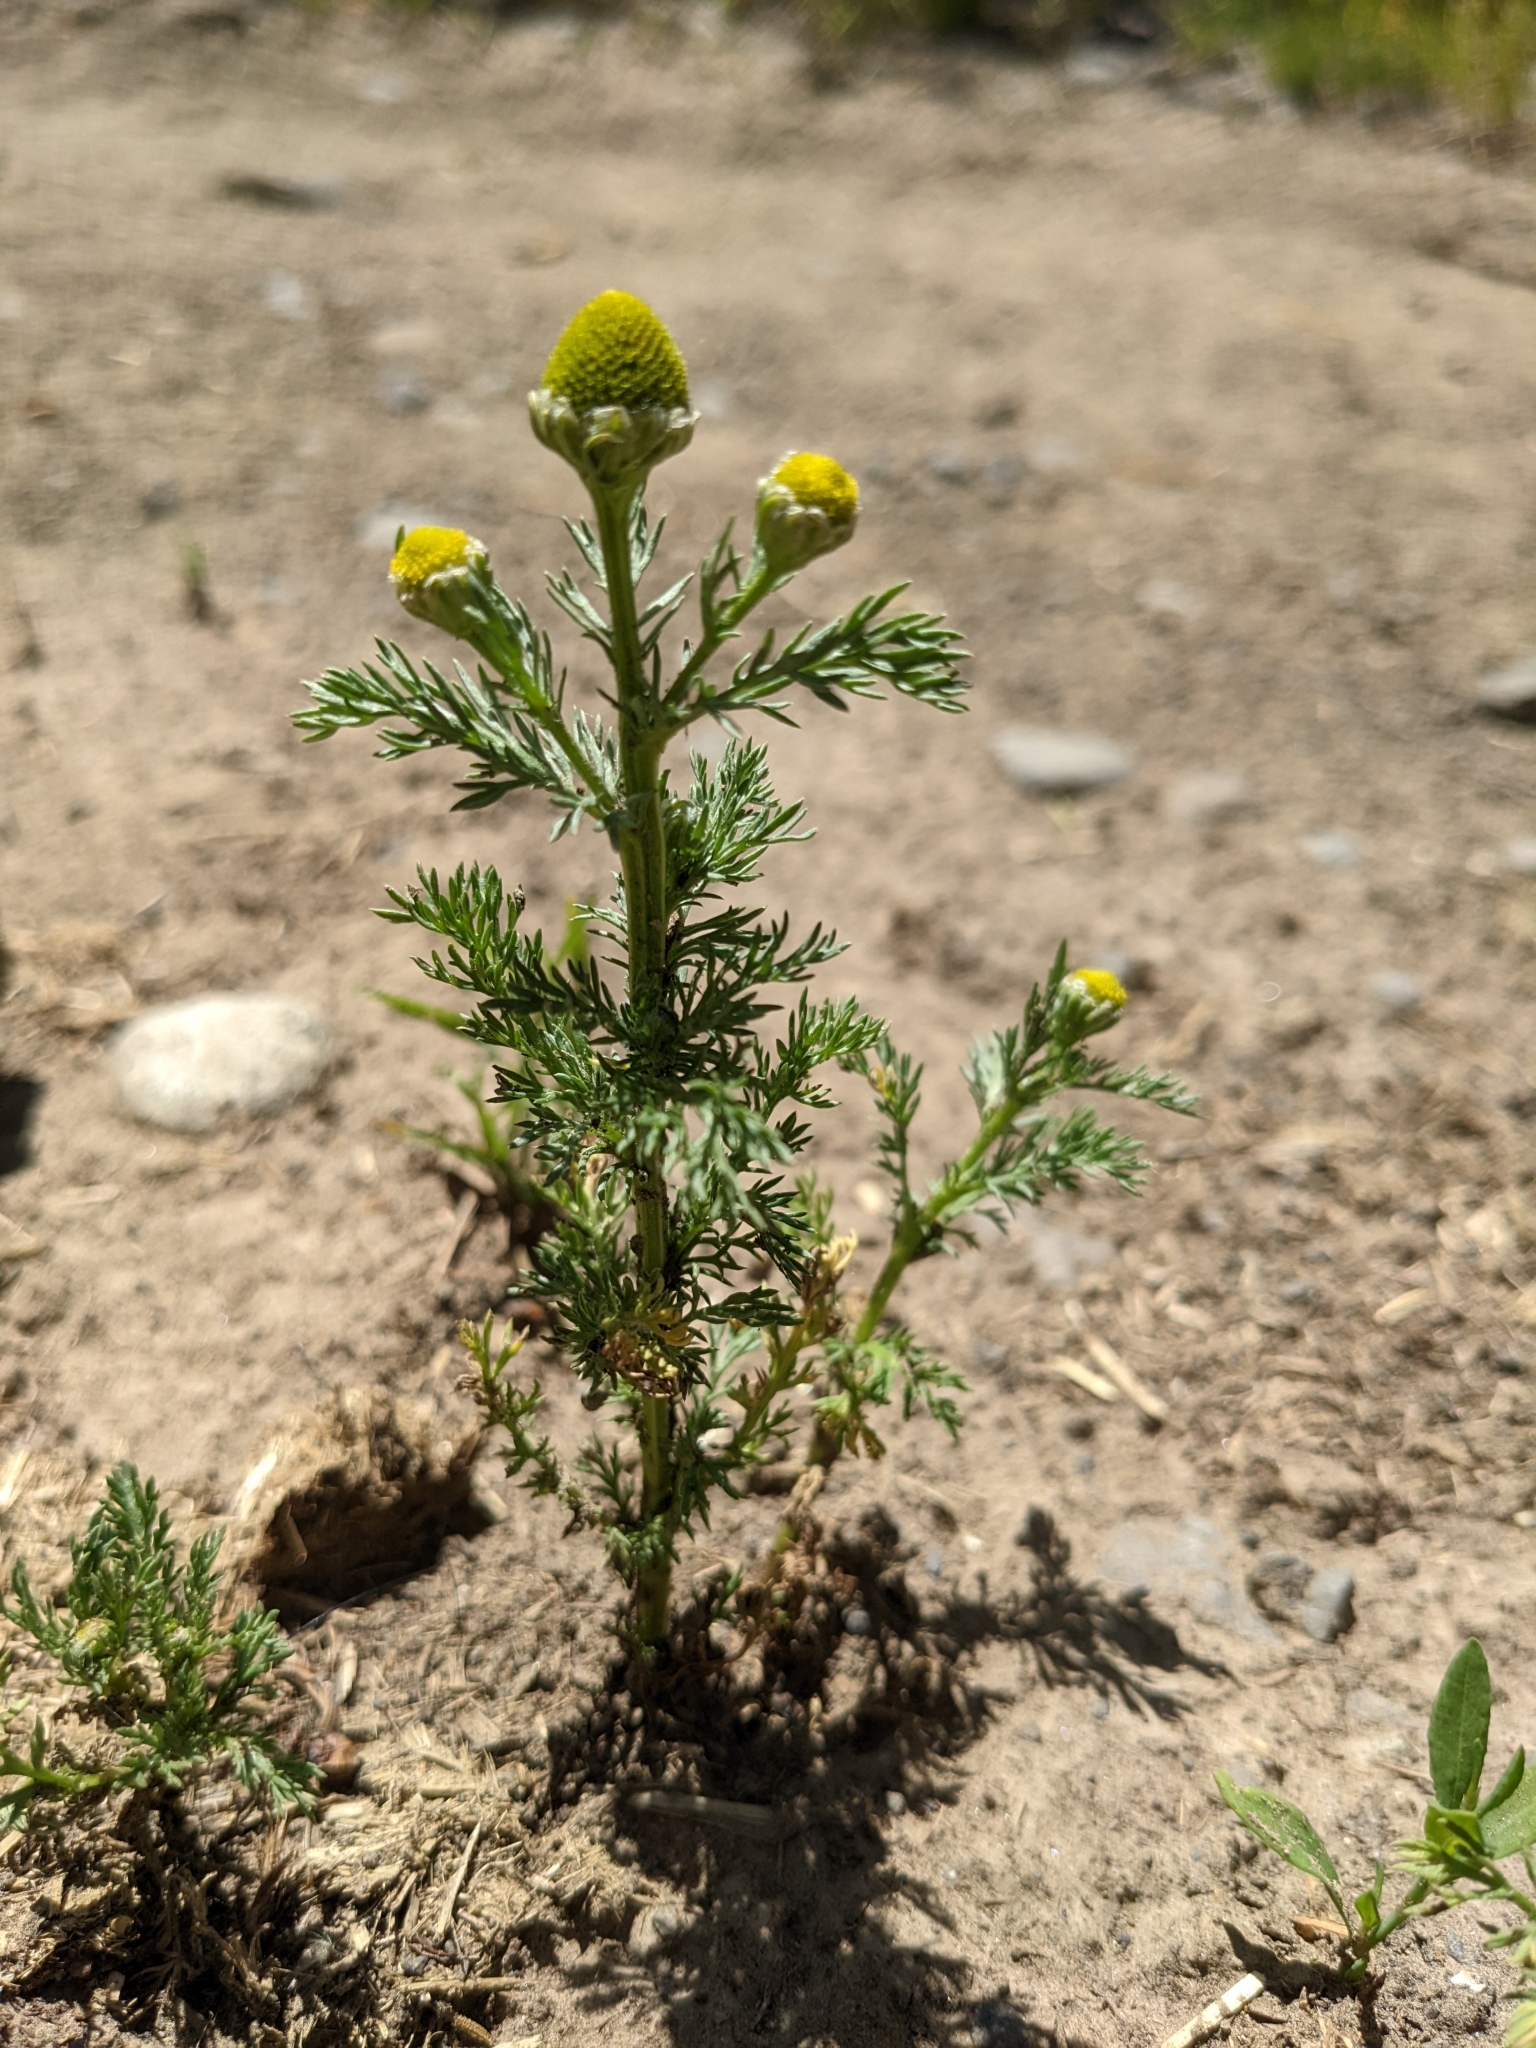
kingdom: Plantae
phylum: Tracheophyta
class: Magnoliopsida
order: Asterales
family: Asteraceae
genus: Matricaria
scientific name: Matricaria discoidea
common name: Disc mayweed
